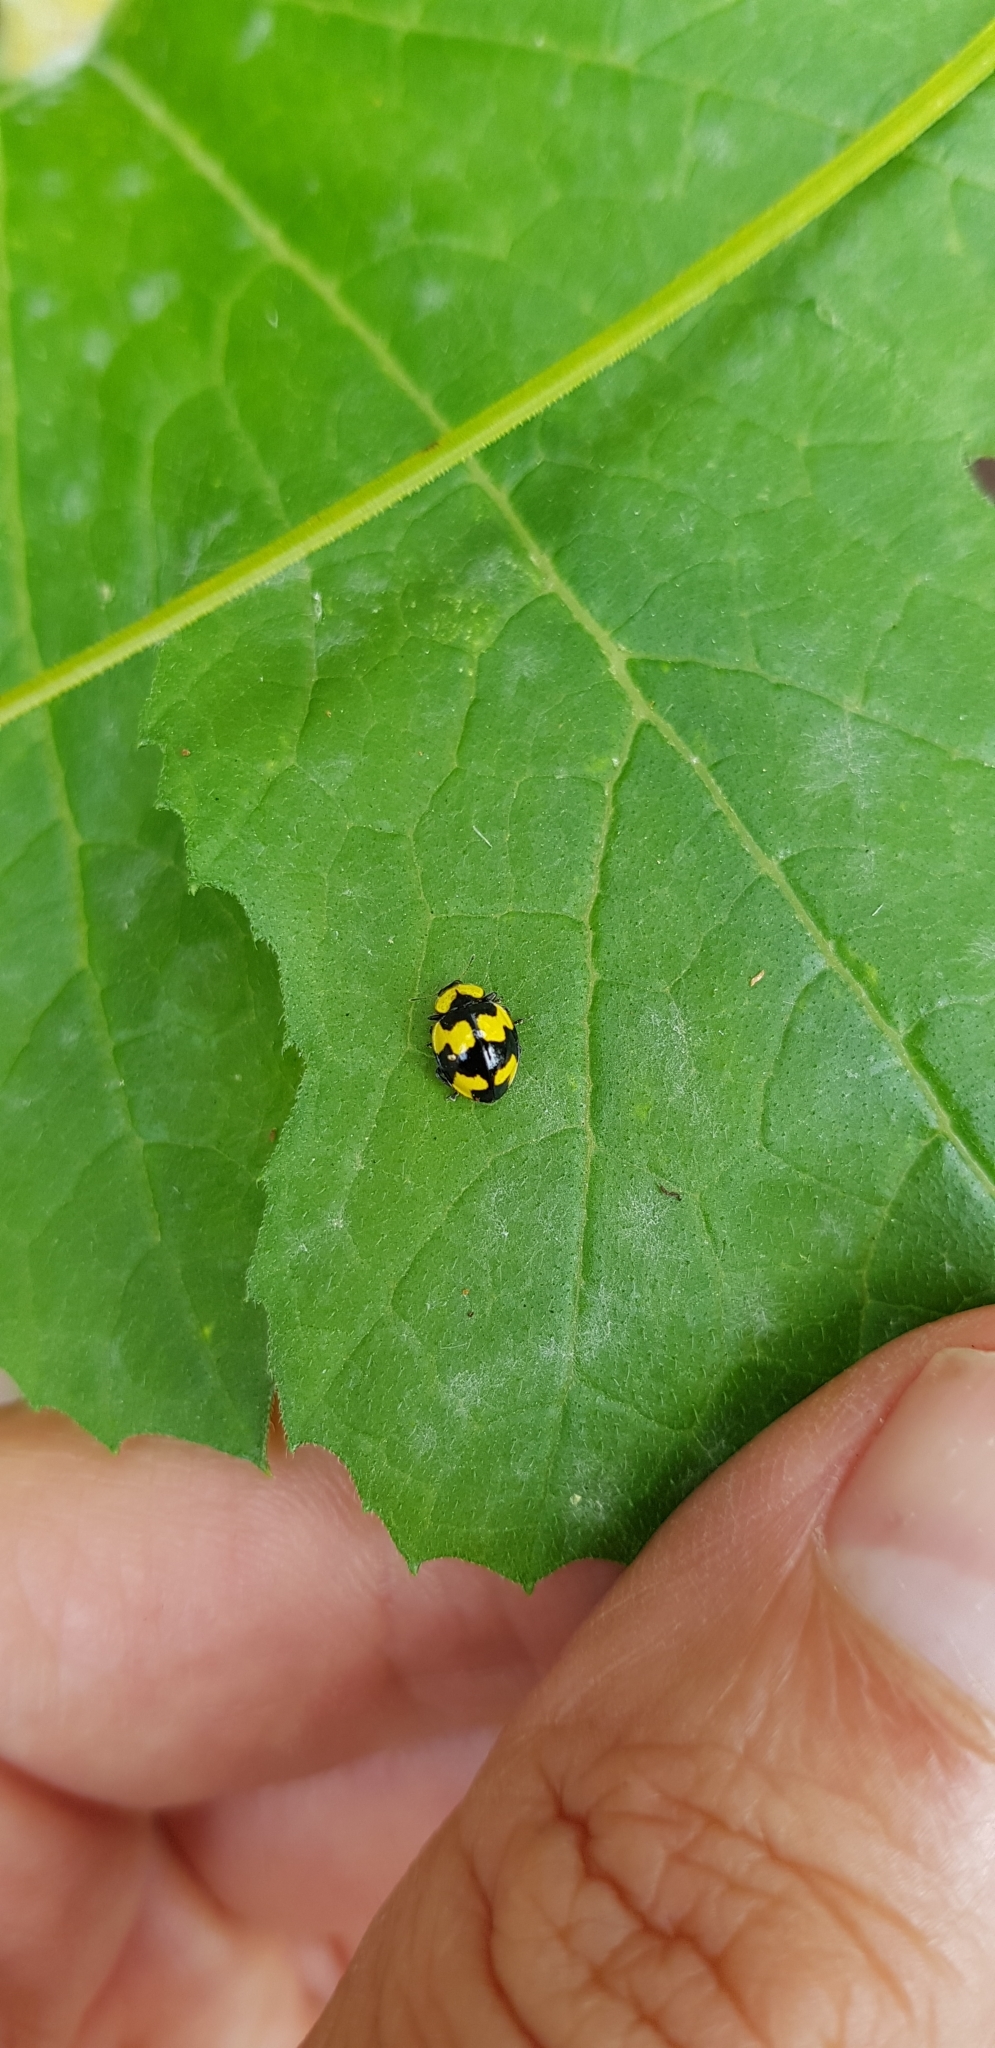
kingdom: Animalia
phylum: Arthropoda
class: Insecta
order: Coleoptera
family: Coccinellidae
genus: Illeis
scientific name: Illeis galbula
